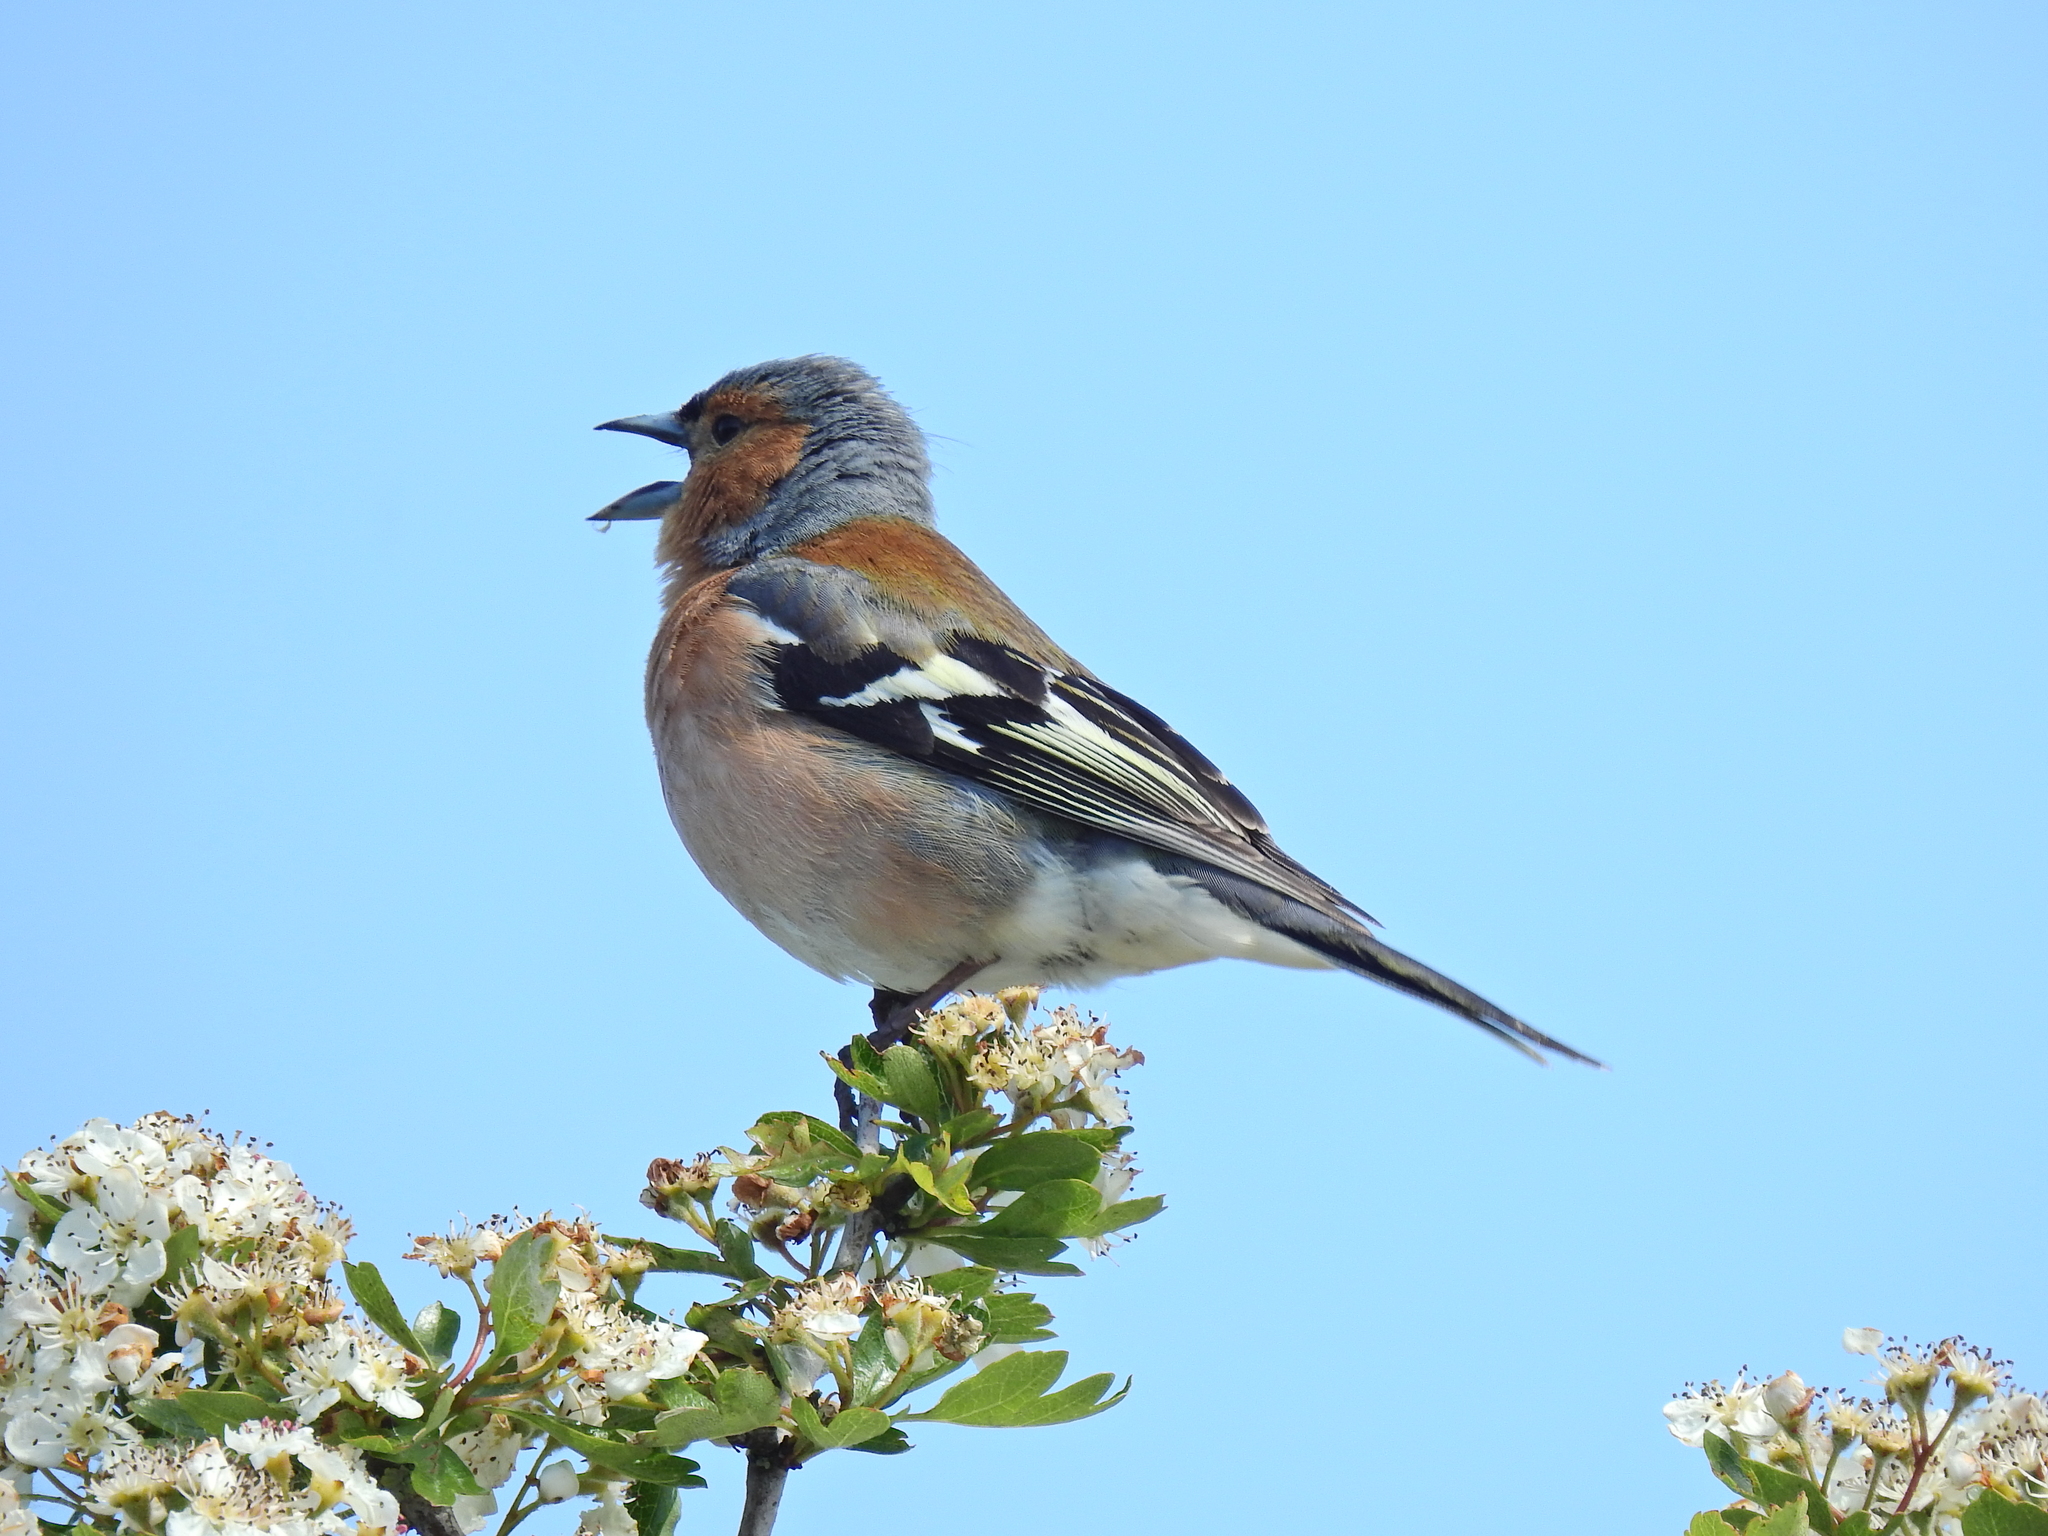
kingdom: Animalia
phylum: Chordata
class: Aves
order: Passeriformes
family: Fringillidae
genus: Fringilla
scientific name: Fringilla coelebs
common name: Common chaffinch
